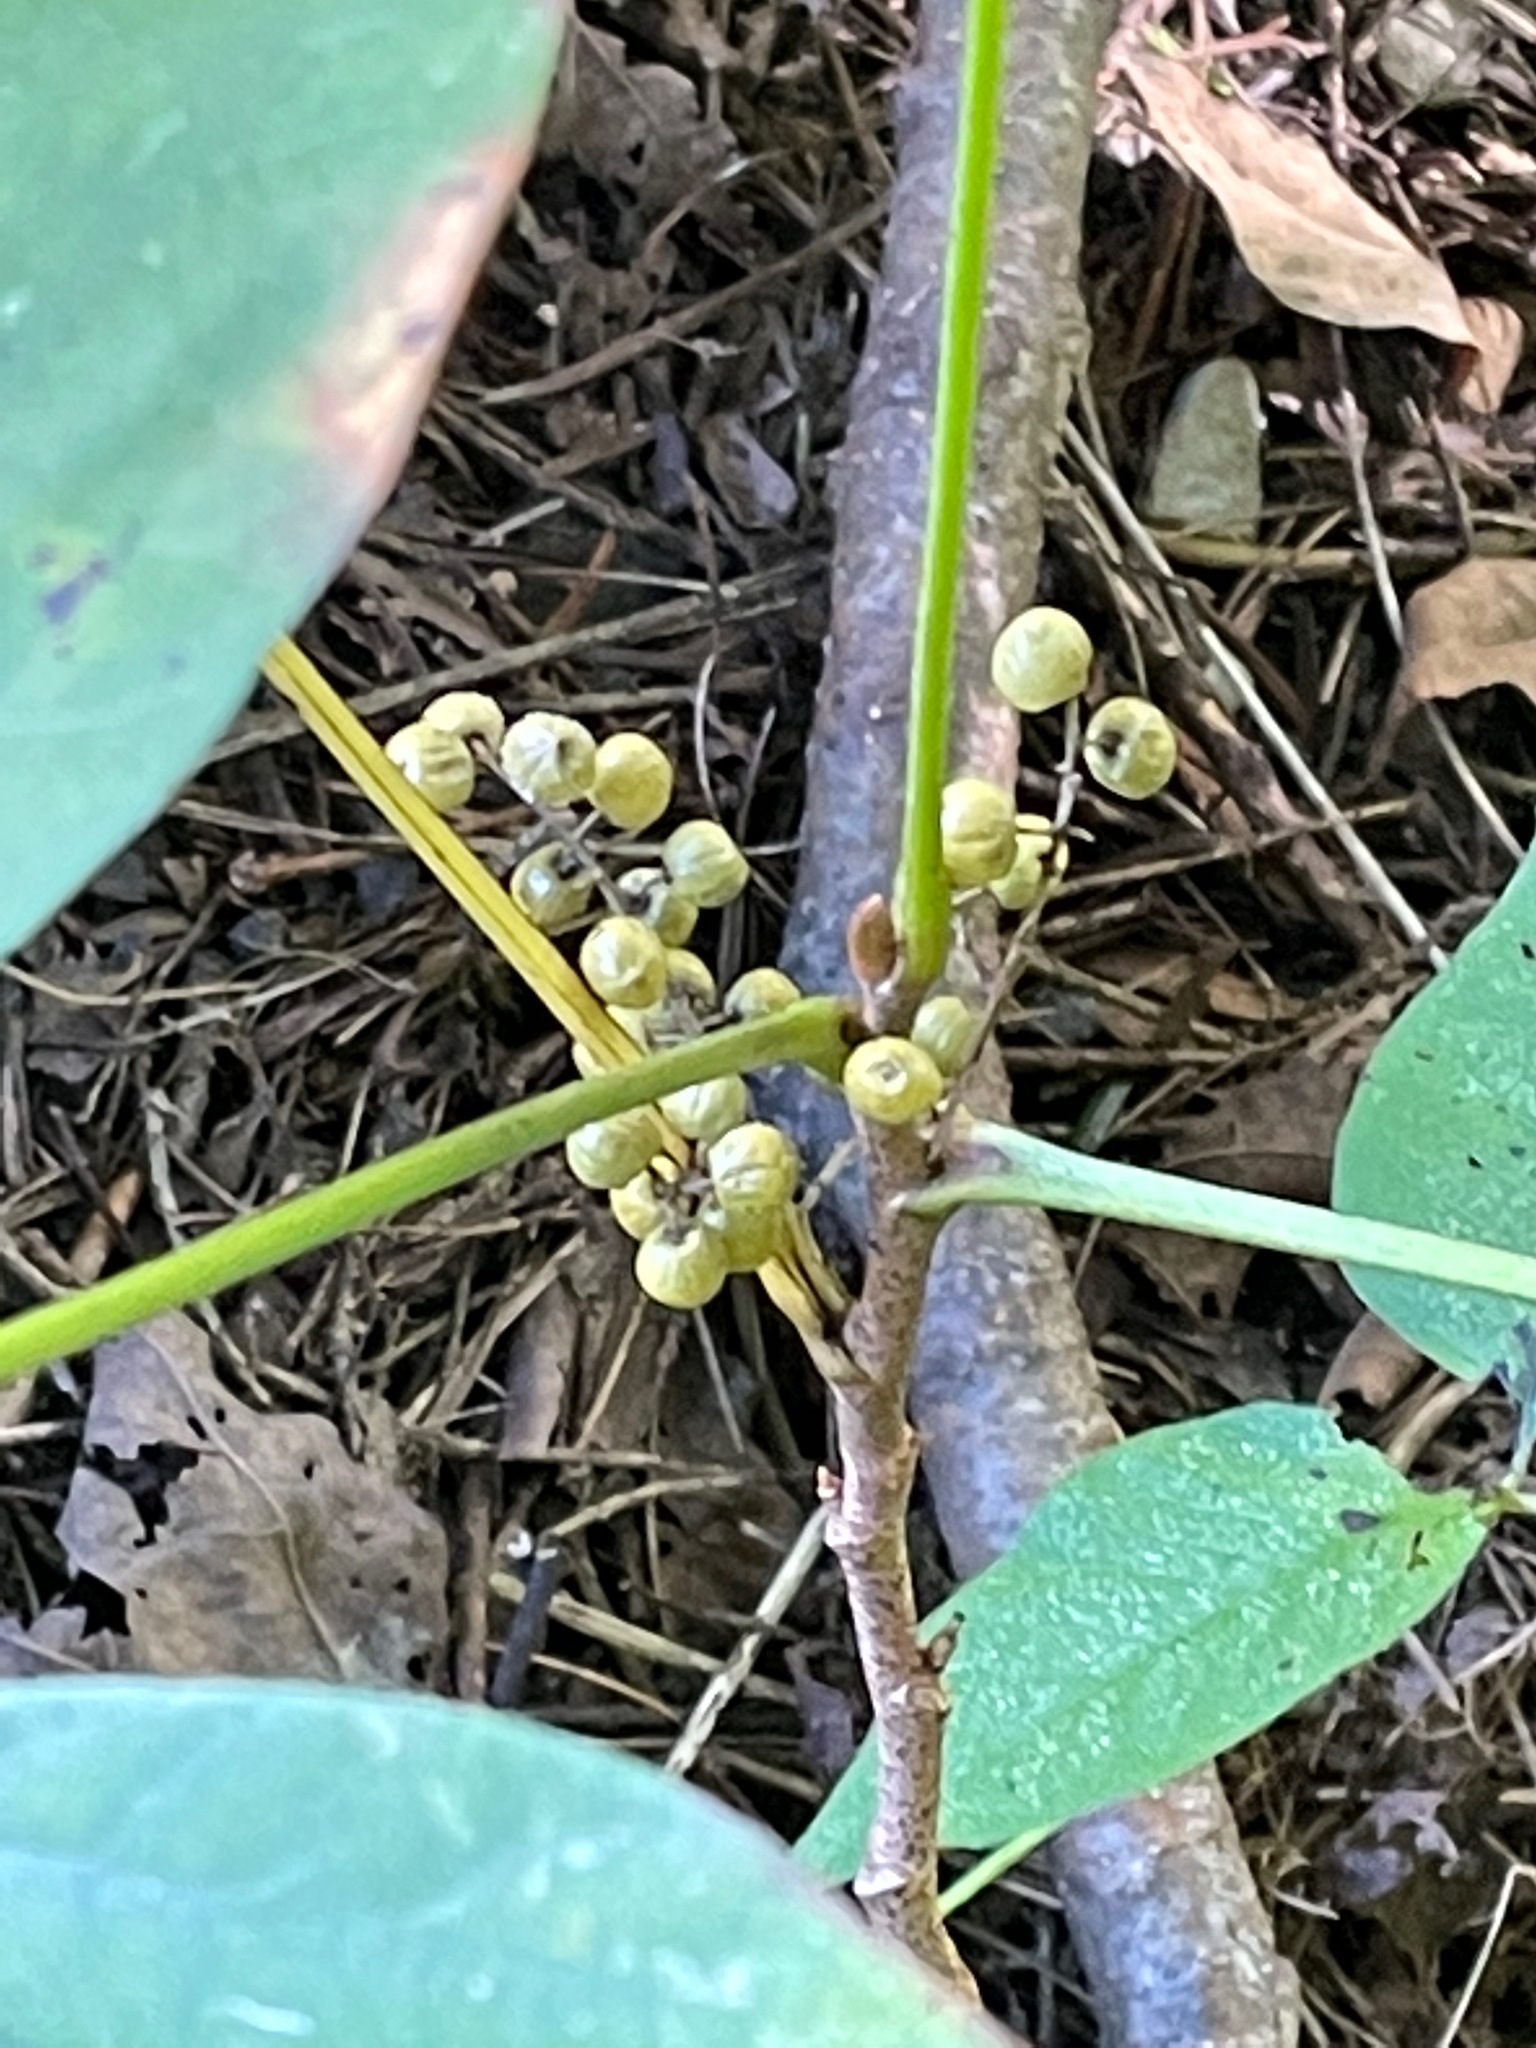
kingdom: Plantae
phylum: Tracheophyta
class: Magnoliopsida
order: Sapindales
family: Anacardiaceae
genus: Toxicodendron
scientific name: Toxicodendron rydbergii
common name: Rydberg's poison-ivy
